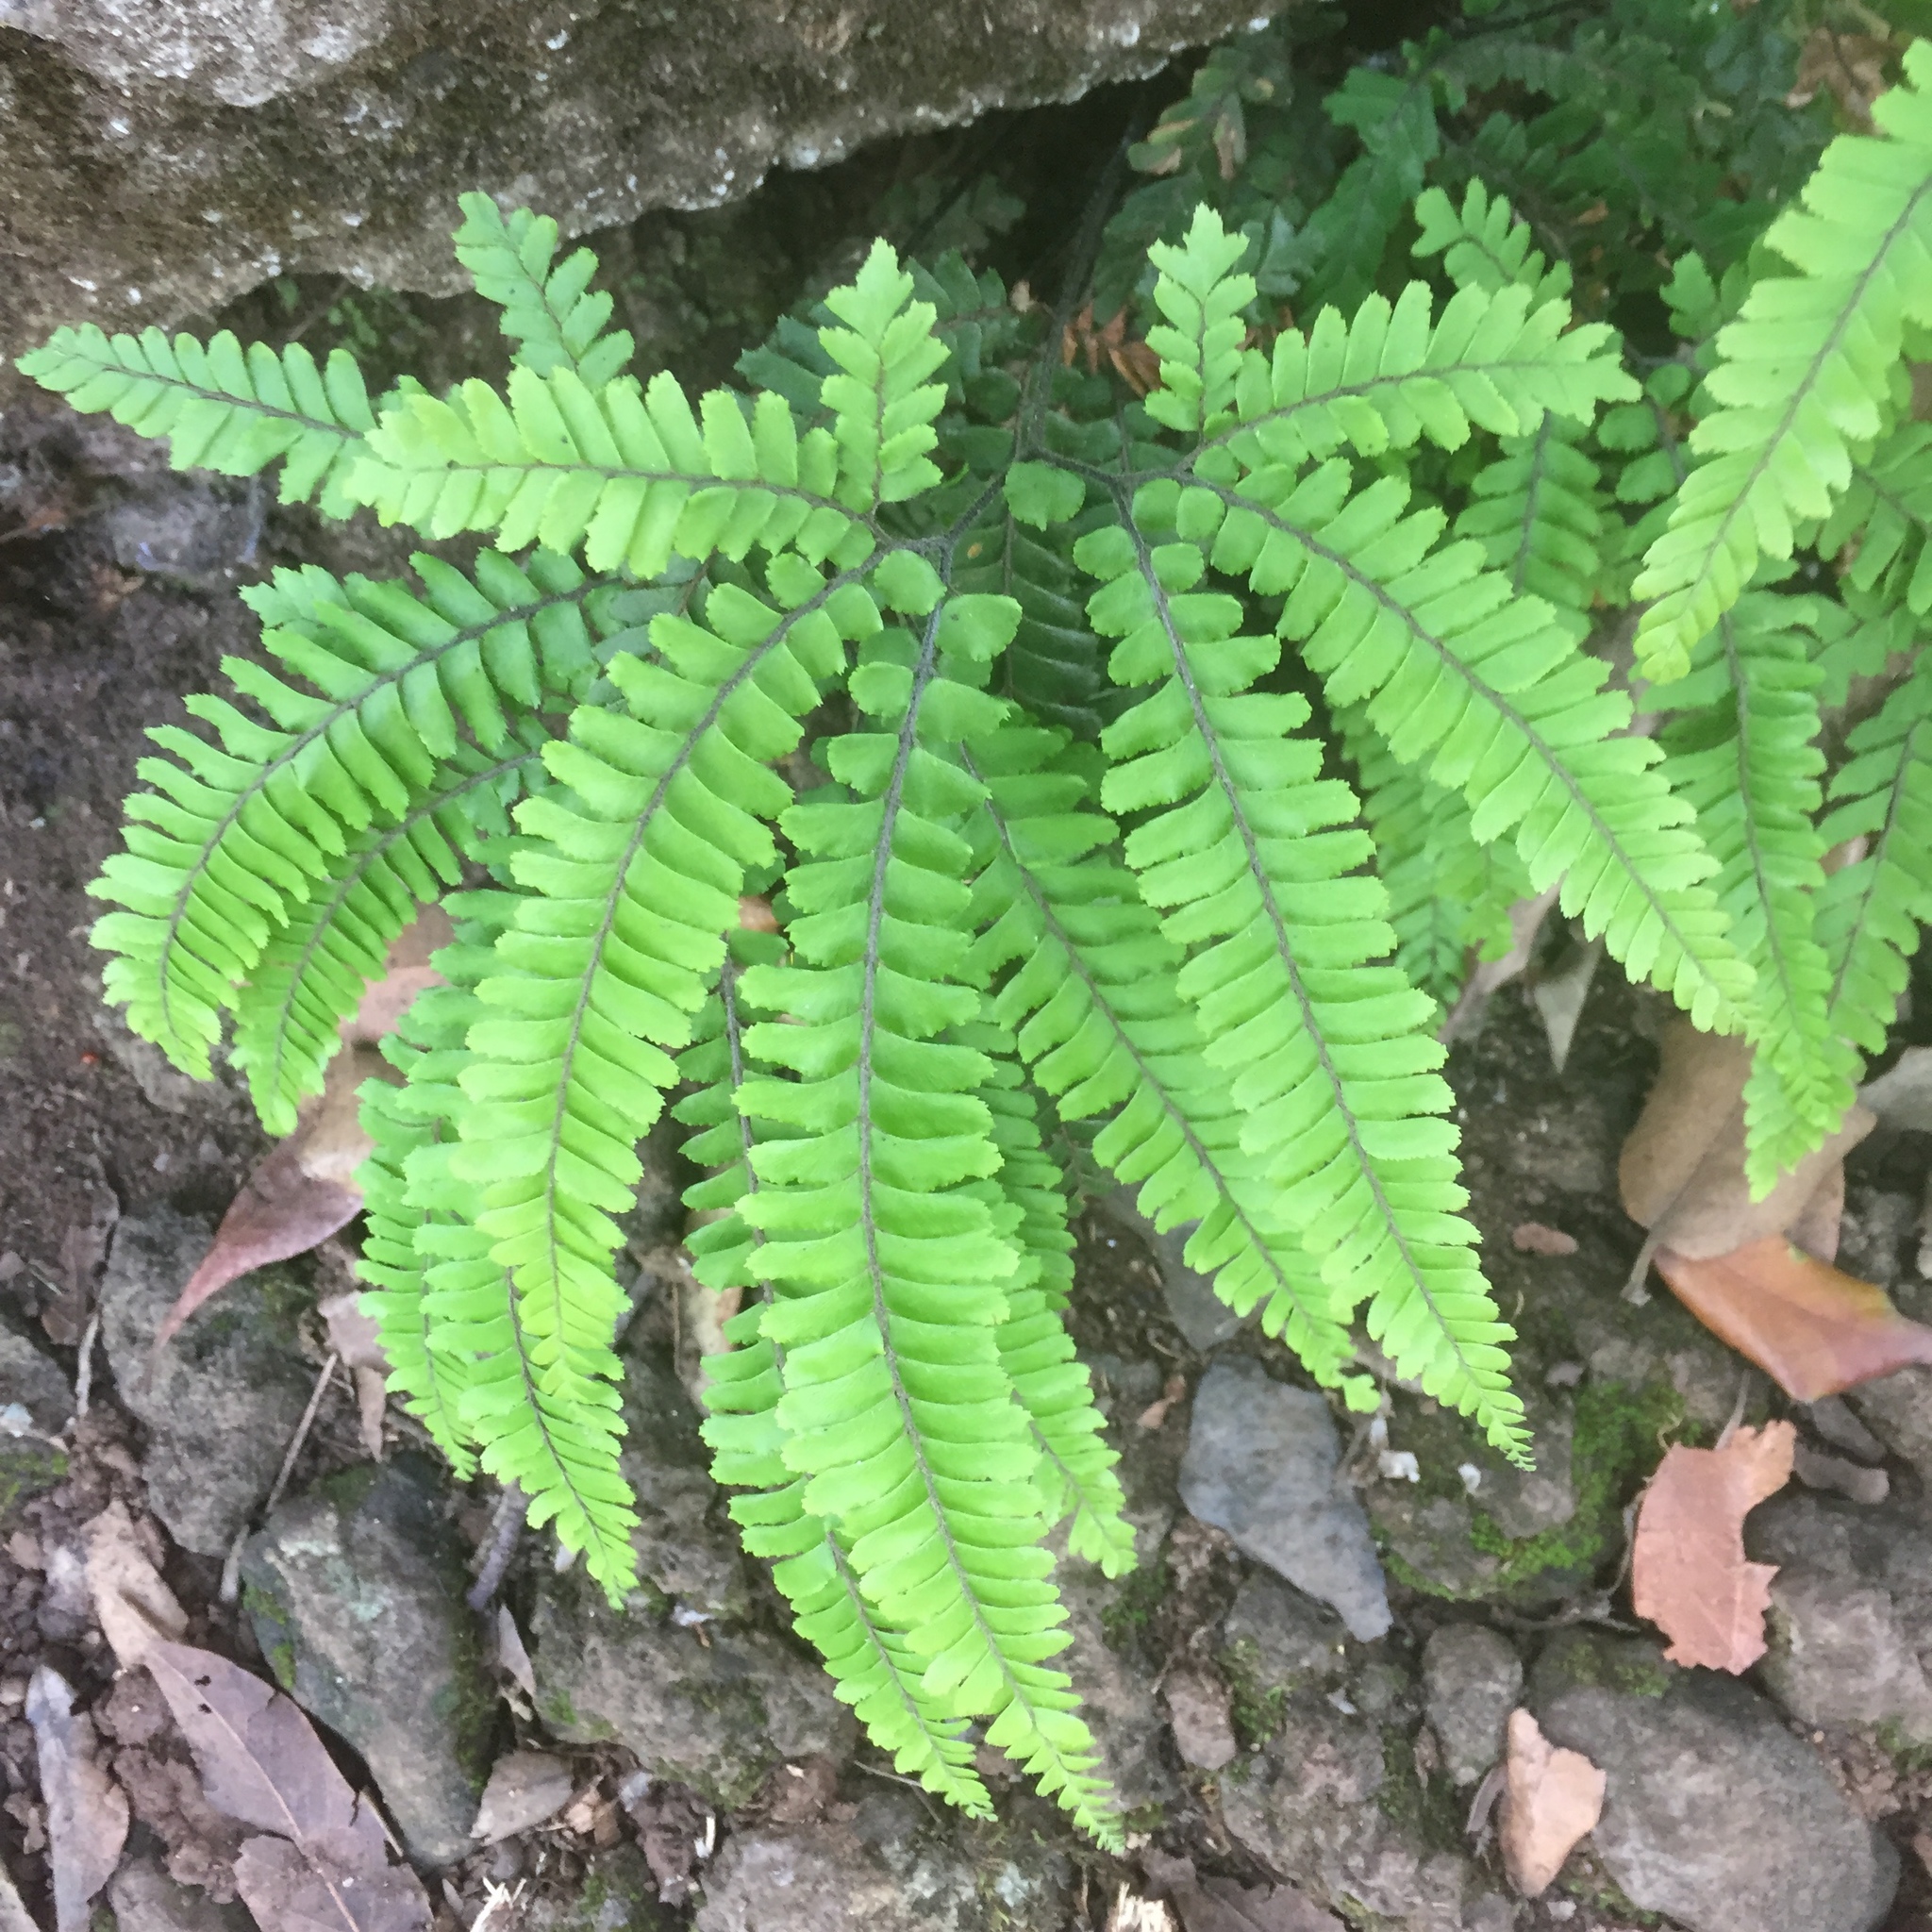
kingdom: Plantae
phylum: Tracheophyta
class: Polypodiopsida
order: Polypodiales
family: Pteridaceae
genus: Adiantum
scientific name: Adiantum hispidulum
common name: Rough maidenhair
